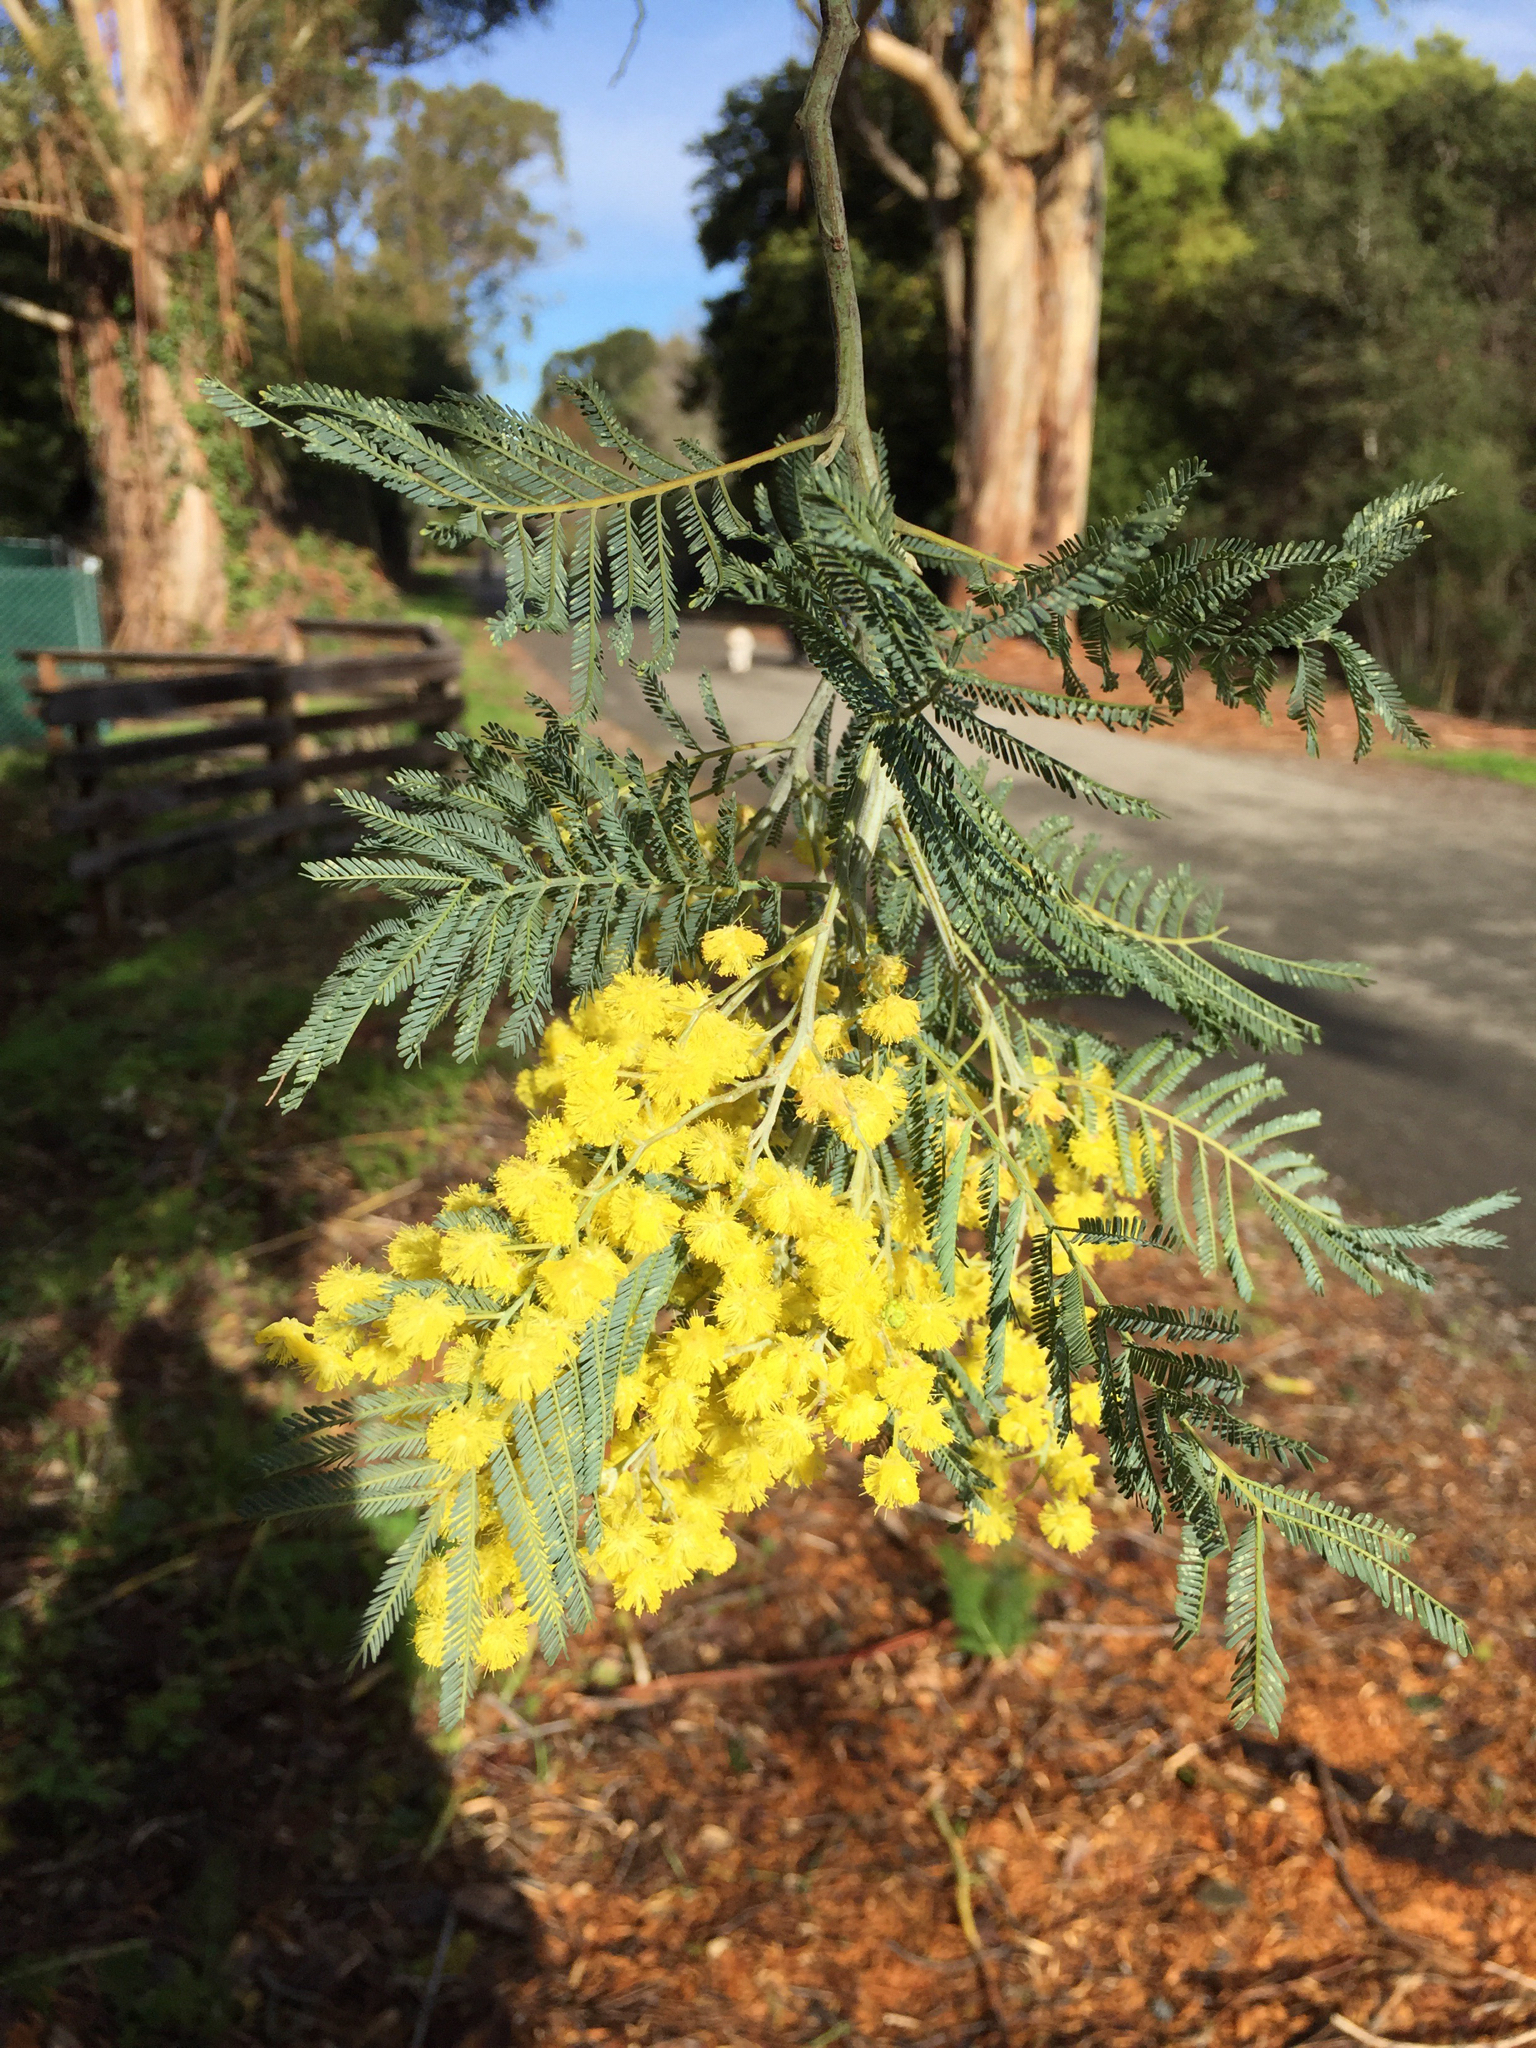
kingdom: Plantae
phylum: Tracheophyta
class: Magnoliopsida
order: Fabales
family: Fabaceae
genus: Acacia
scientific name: Acacia dealbata
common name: Silver wattle
